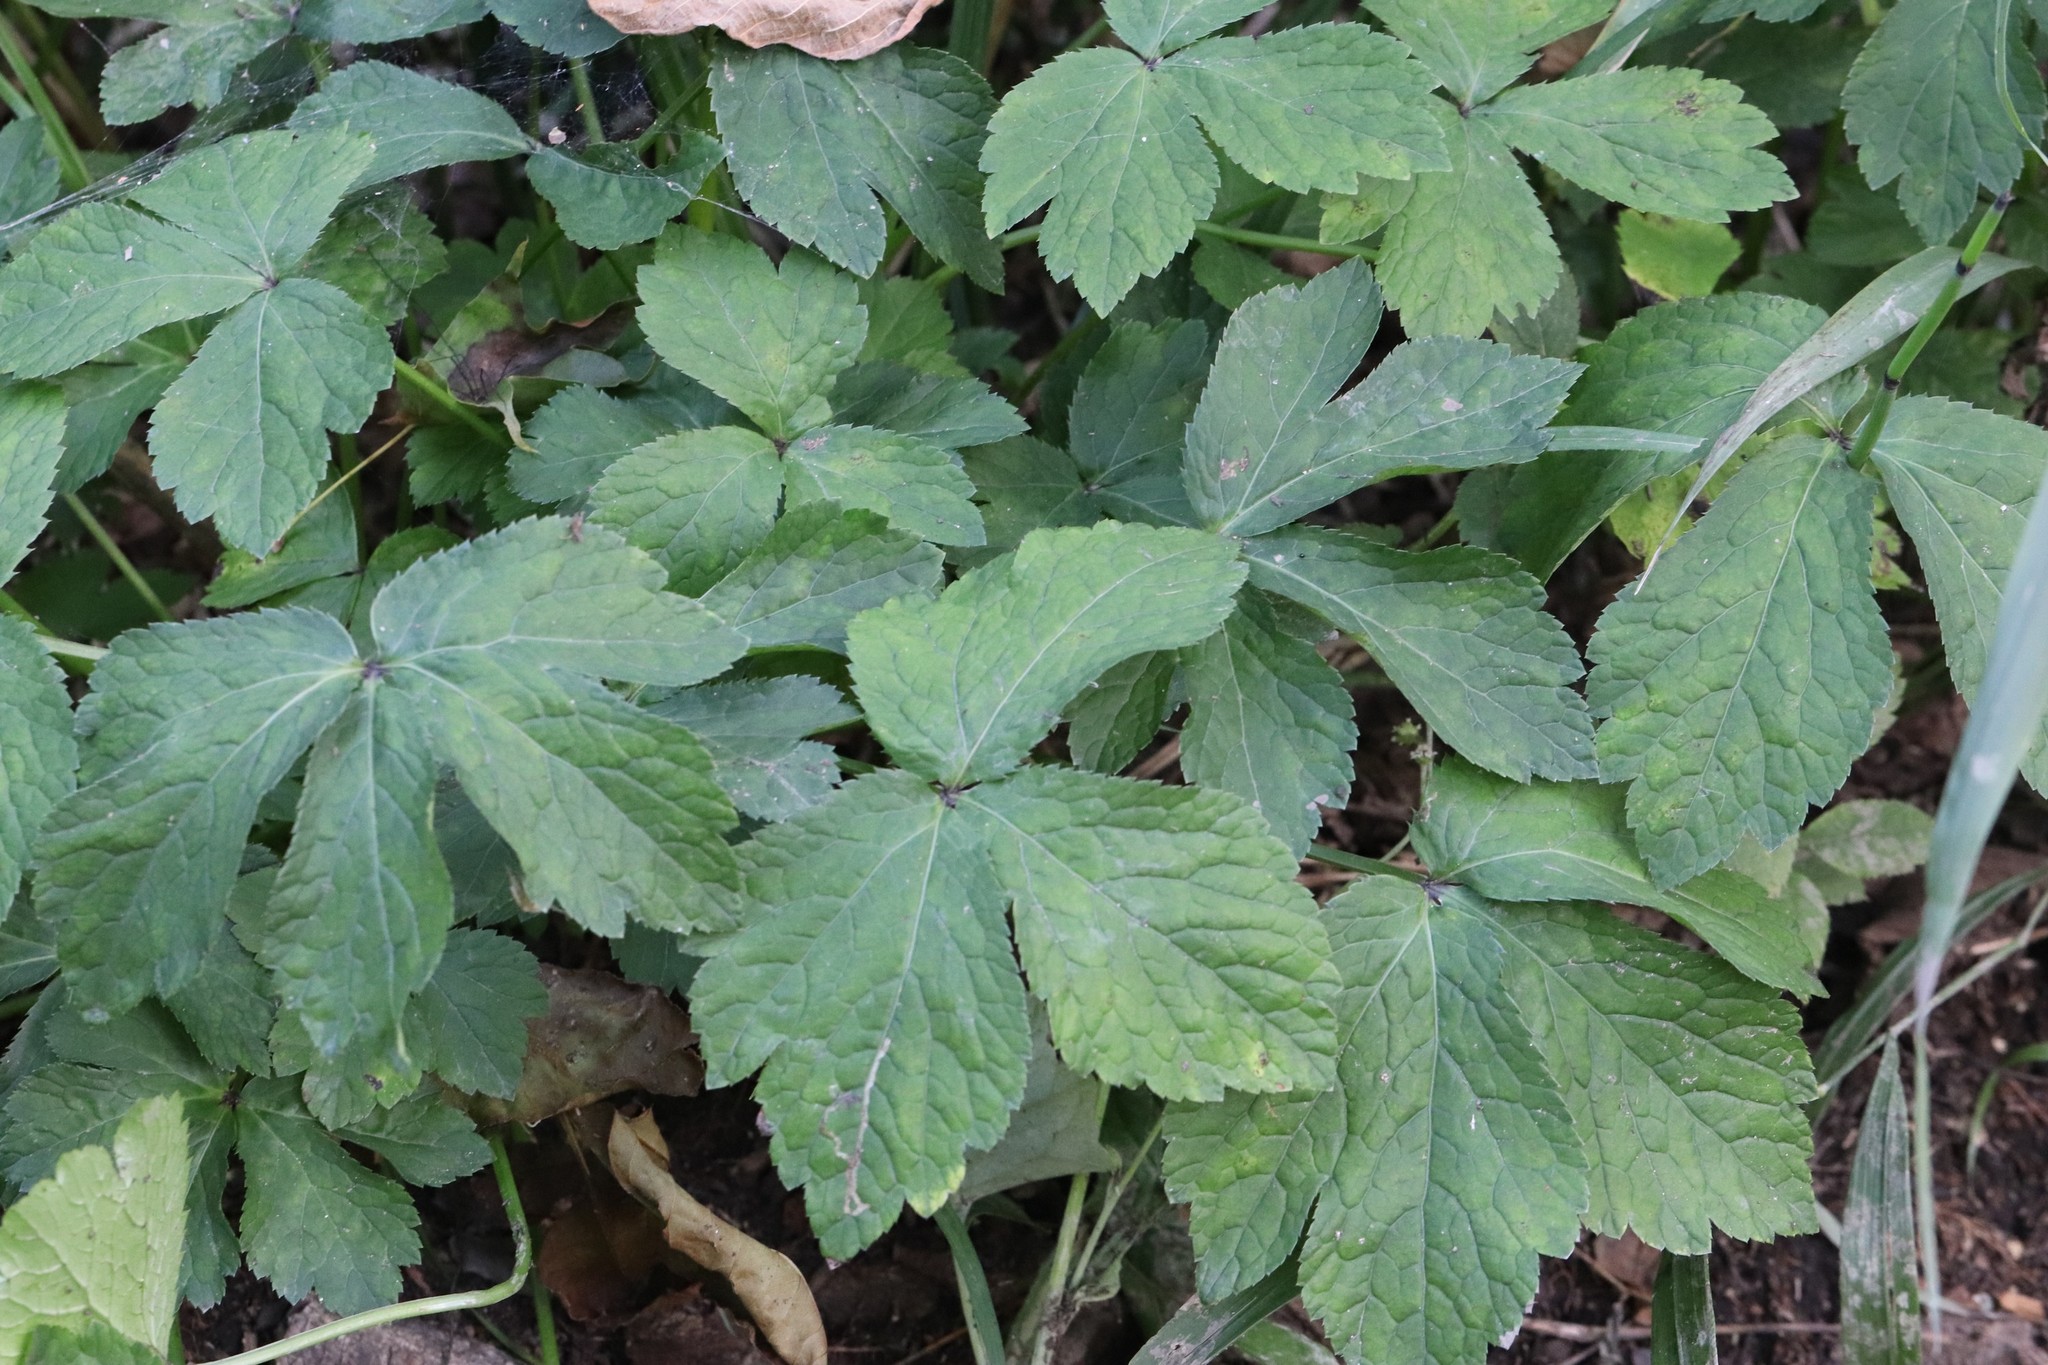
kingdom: Plantae
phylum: Tracheophyta
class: Magnoliopsida
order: Apiales
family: Apiaceae
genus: Sanicula
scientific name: Sanicula chinensis
